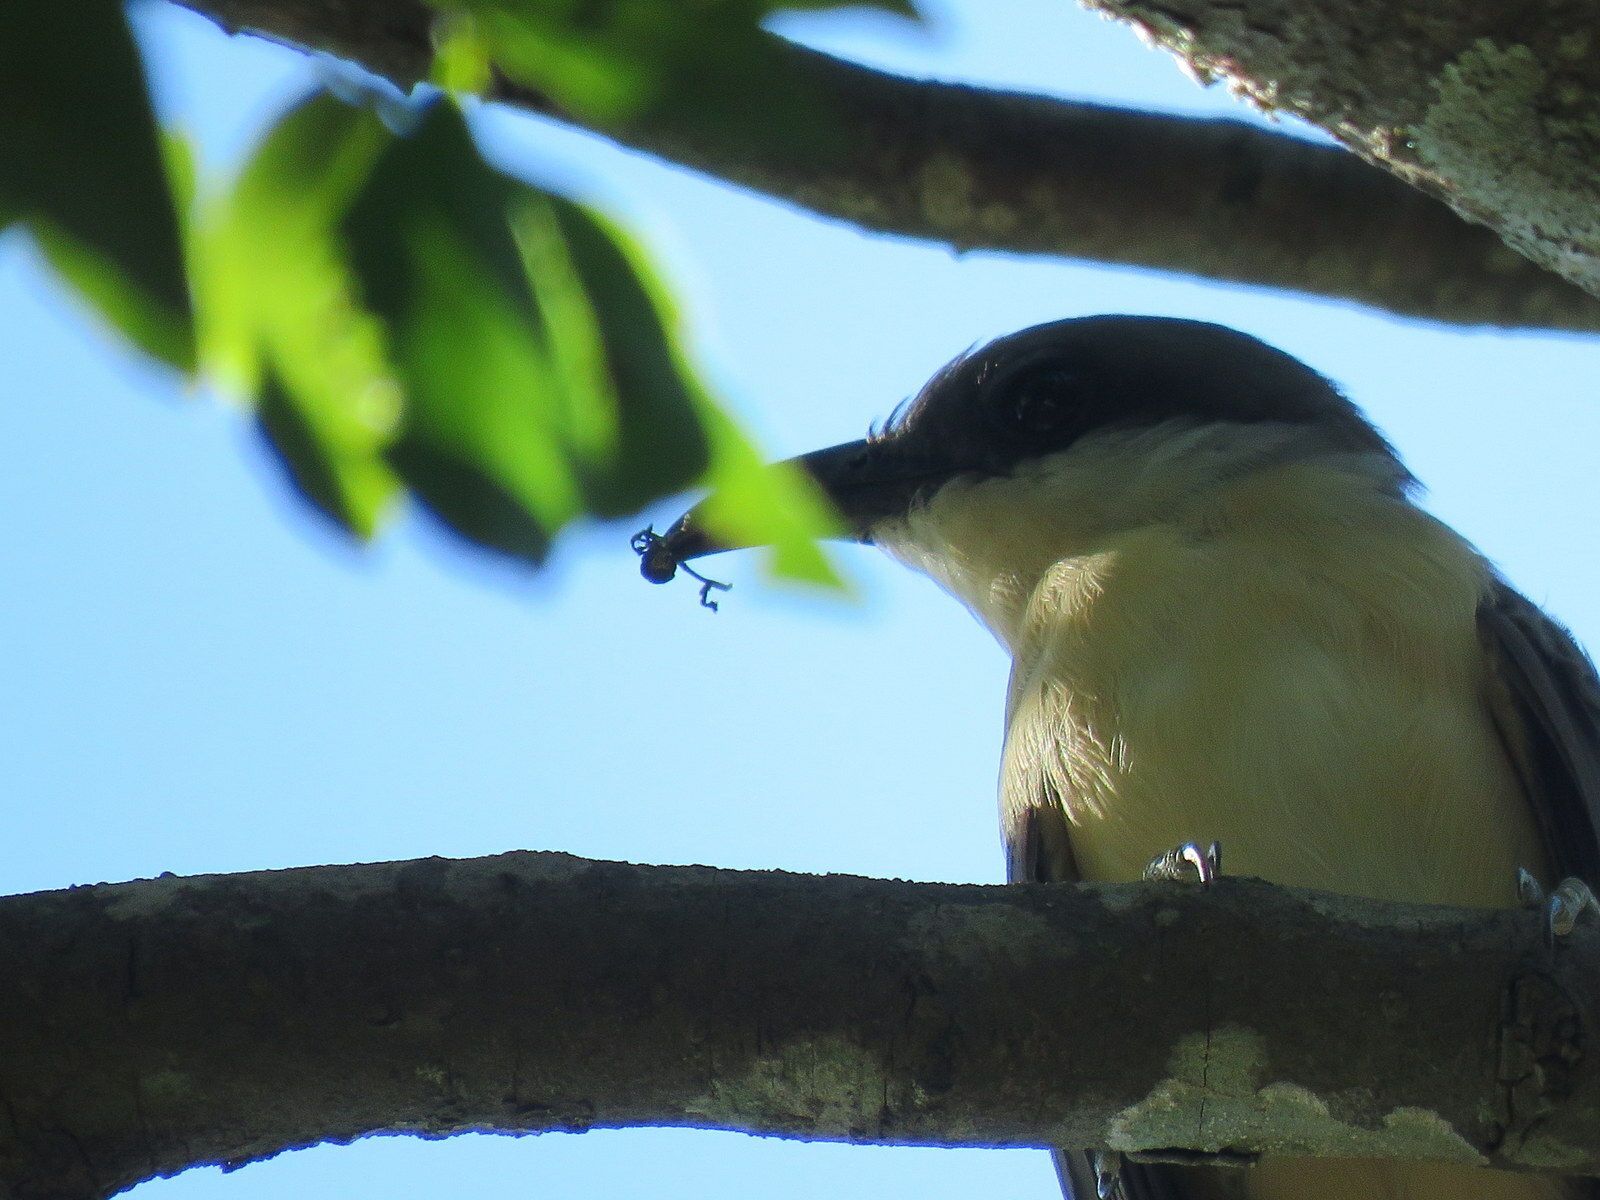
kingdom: Animalia
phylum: Chordata
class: Aves
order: Cuculiformes
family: Cuculidae
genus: Coccyzus
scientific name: Coccyzus melacoryphus
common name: Dark-billed cuckoo
